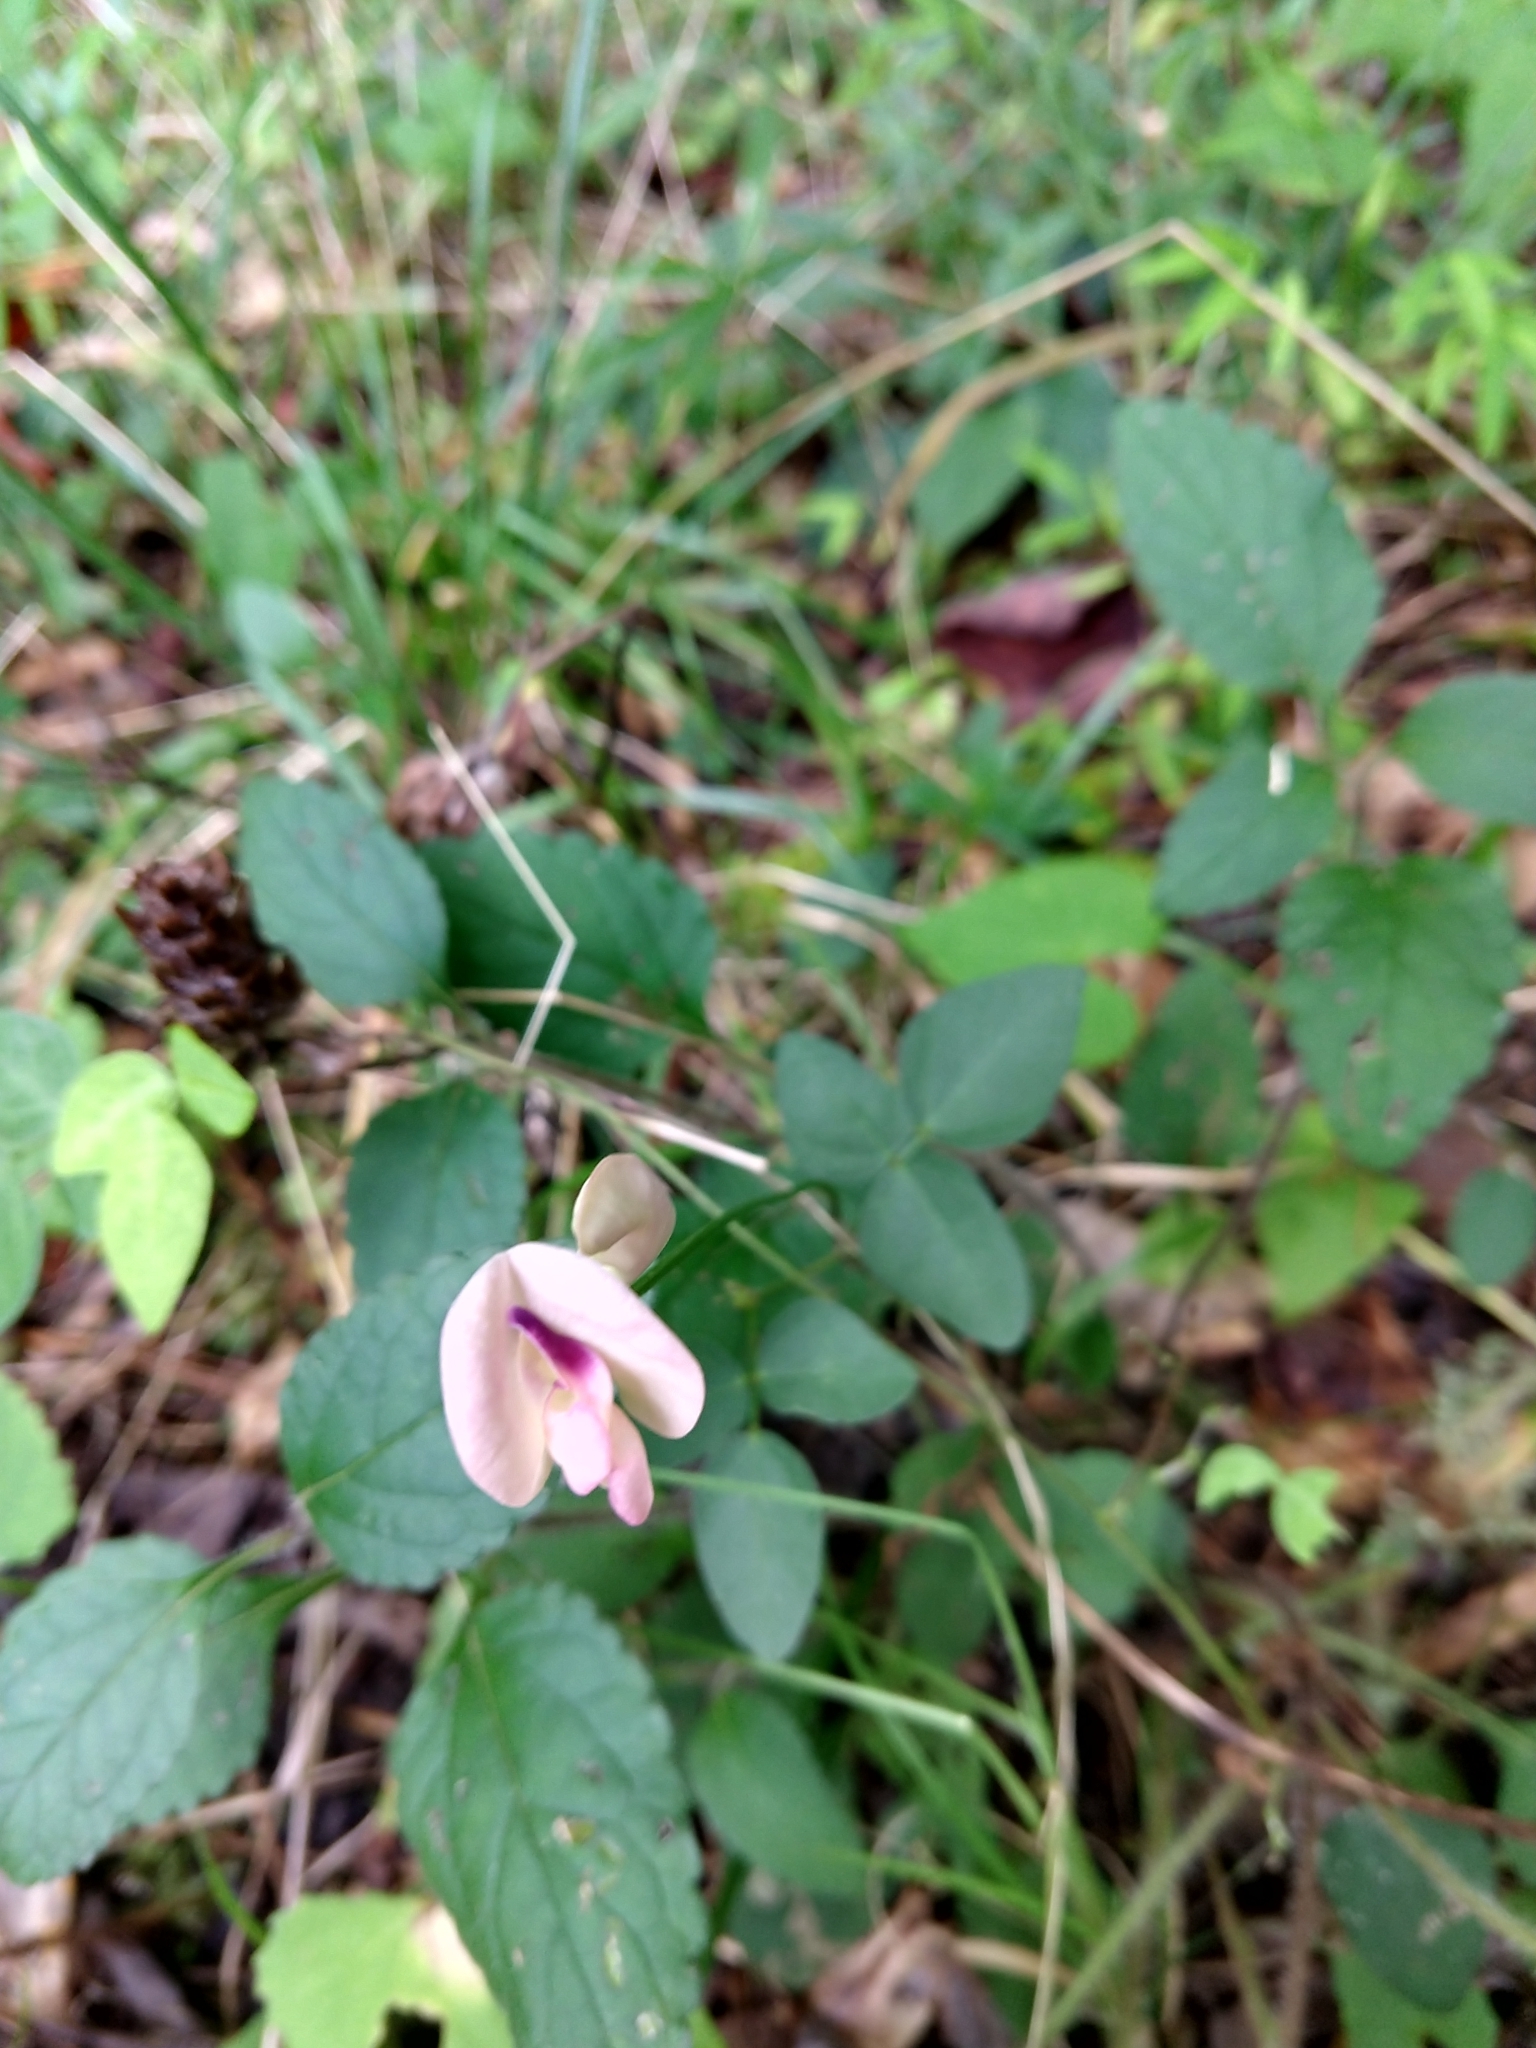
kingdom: Plantae
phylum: Tracheophyta
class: Magnoliopsida
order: Fabales
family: Fabaceae
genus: Strophostyles
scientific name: Strophostyles umbellata
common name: Perennial wild bean
